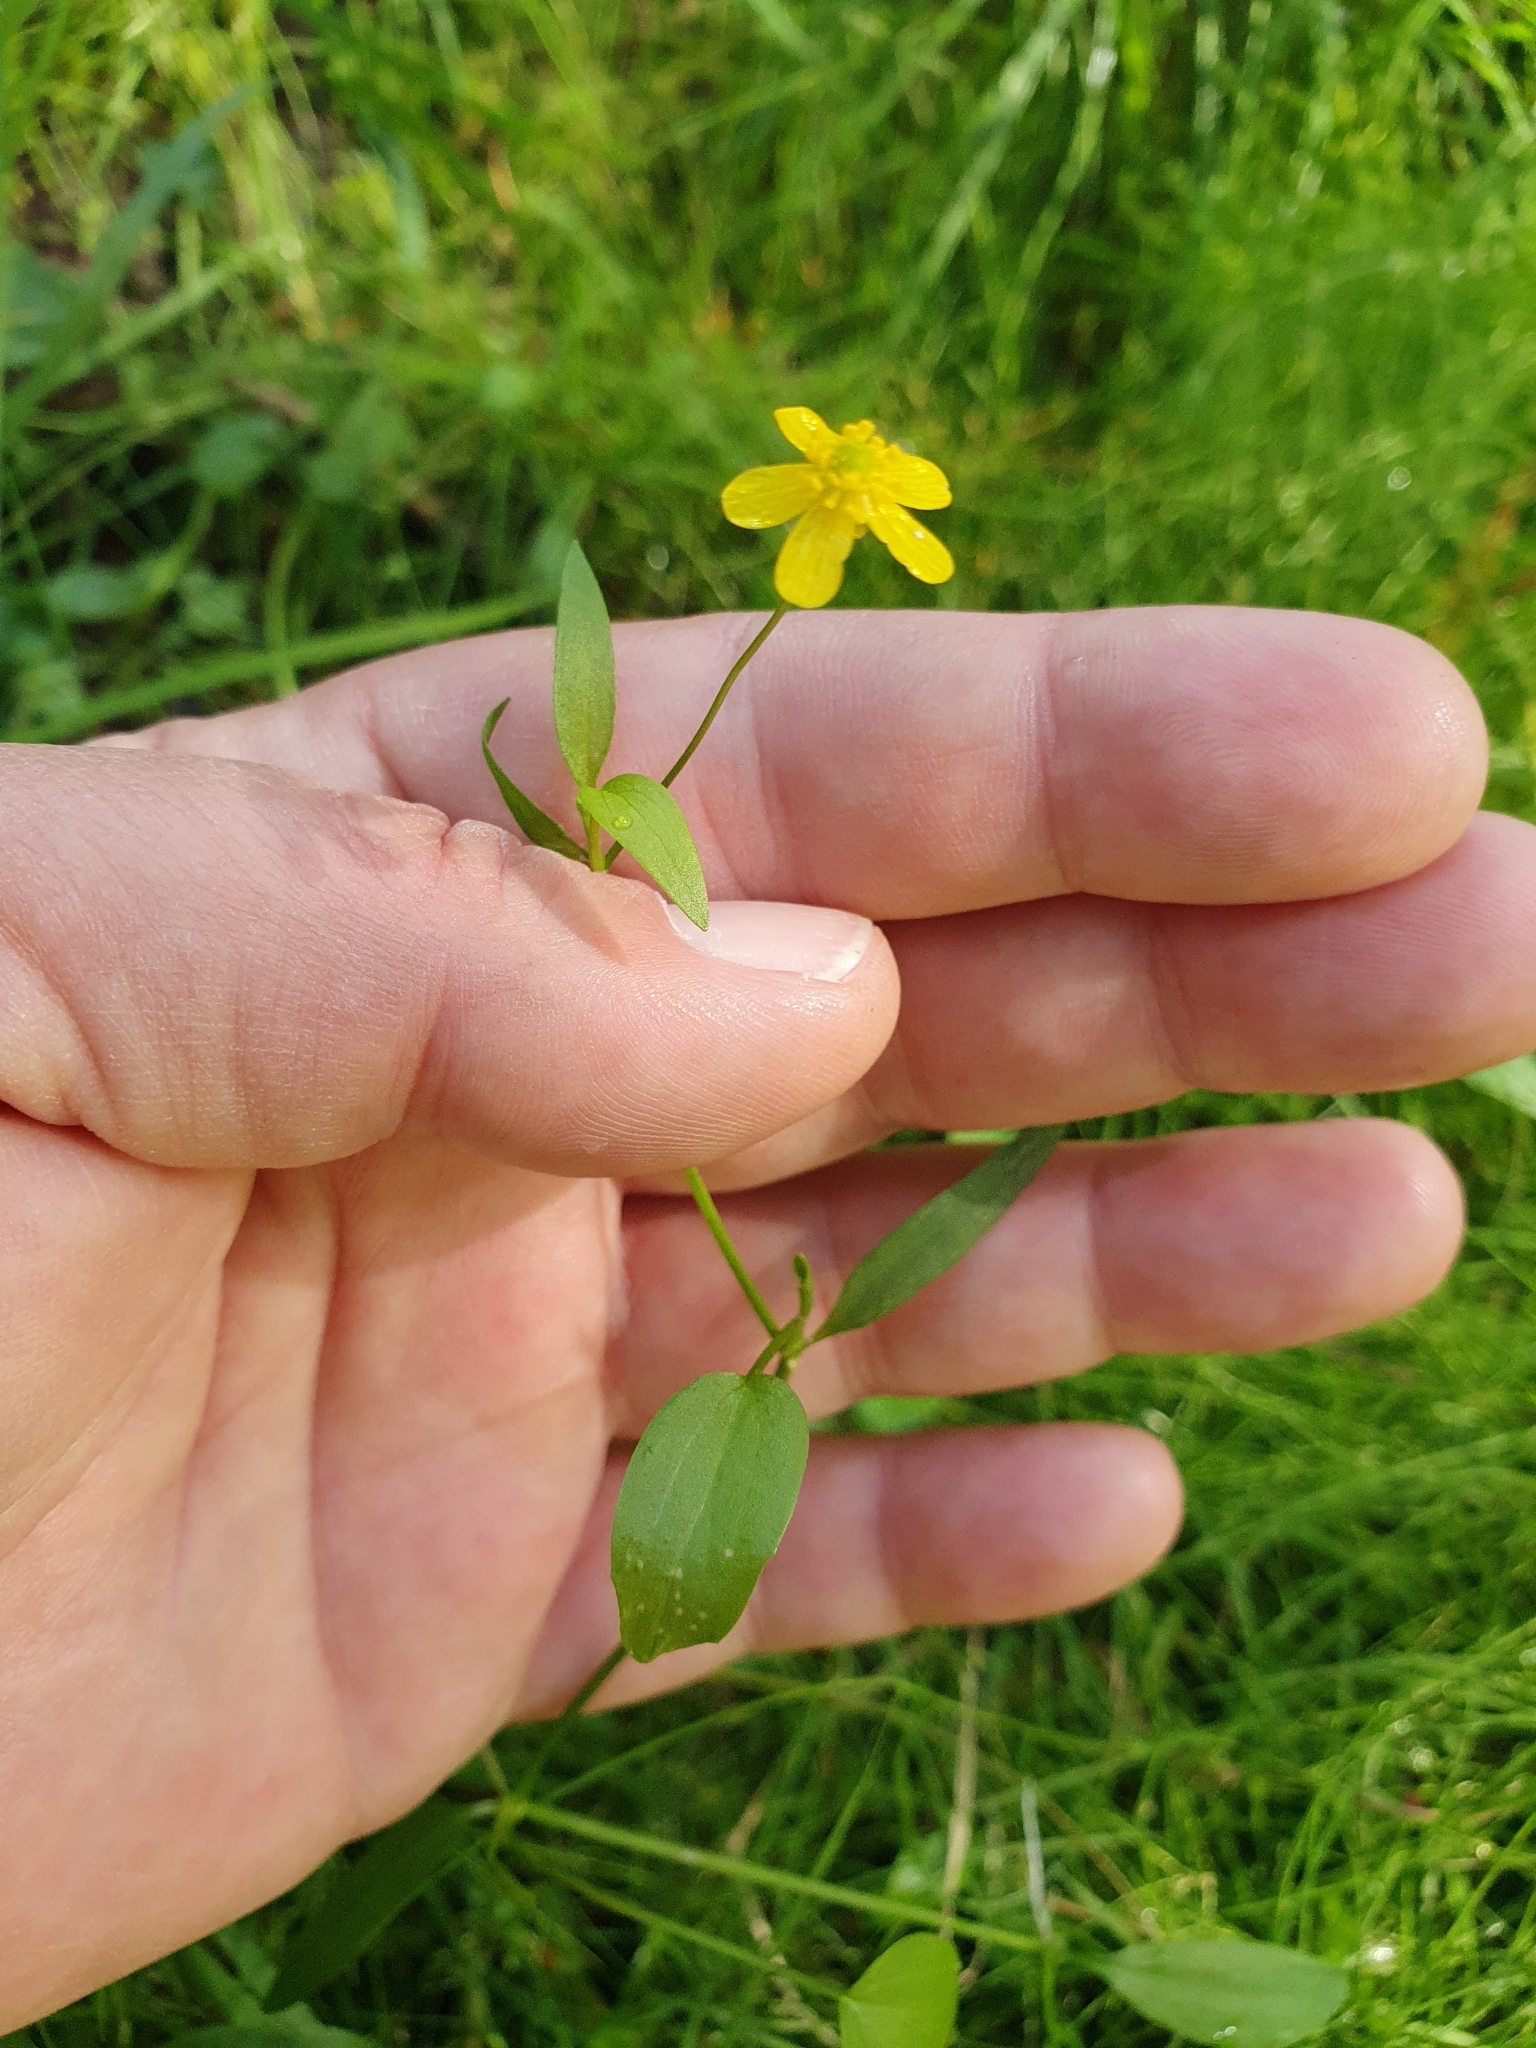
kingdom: Plantae
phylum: Tracheophyta
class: Magnoliopsida
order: Ranunculales
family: Ranunculaceae
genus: Ranunculus
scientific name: Ranunculus flammula
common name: Lesser spearwort
